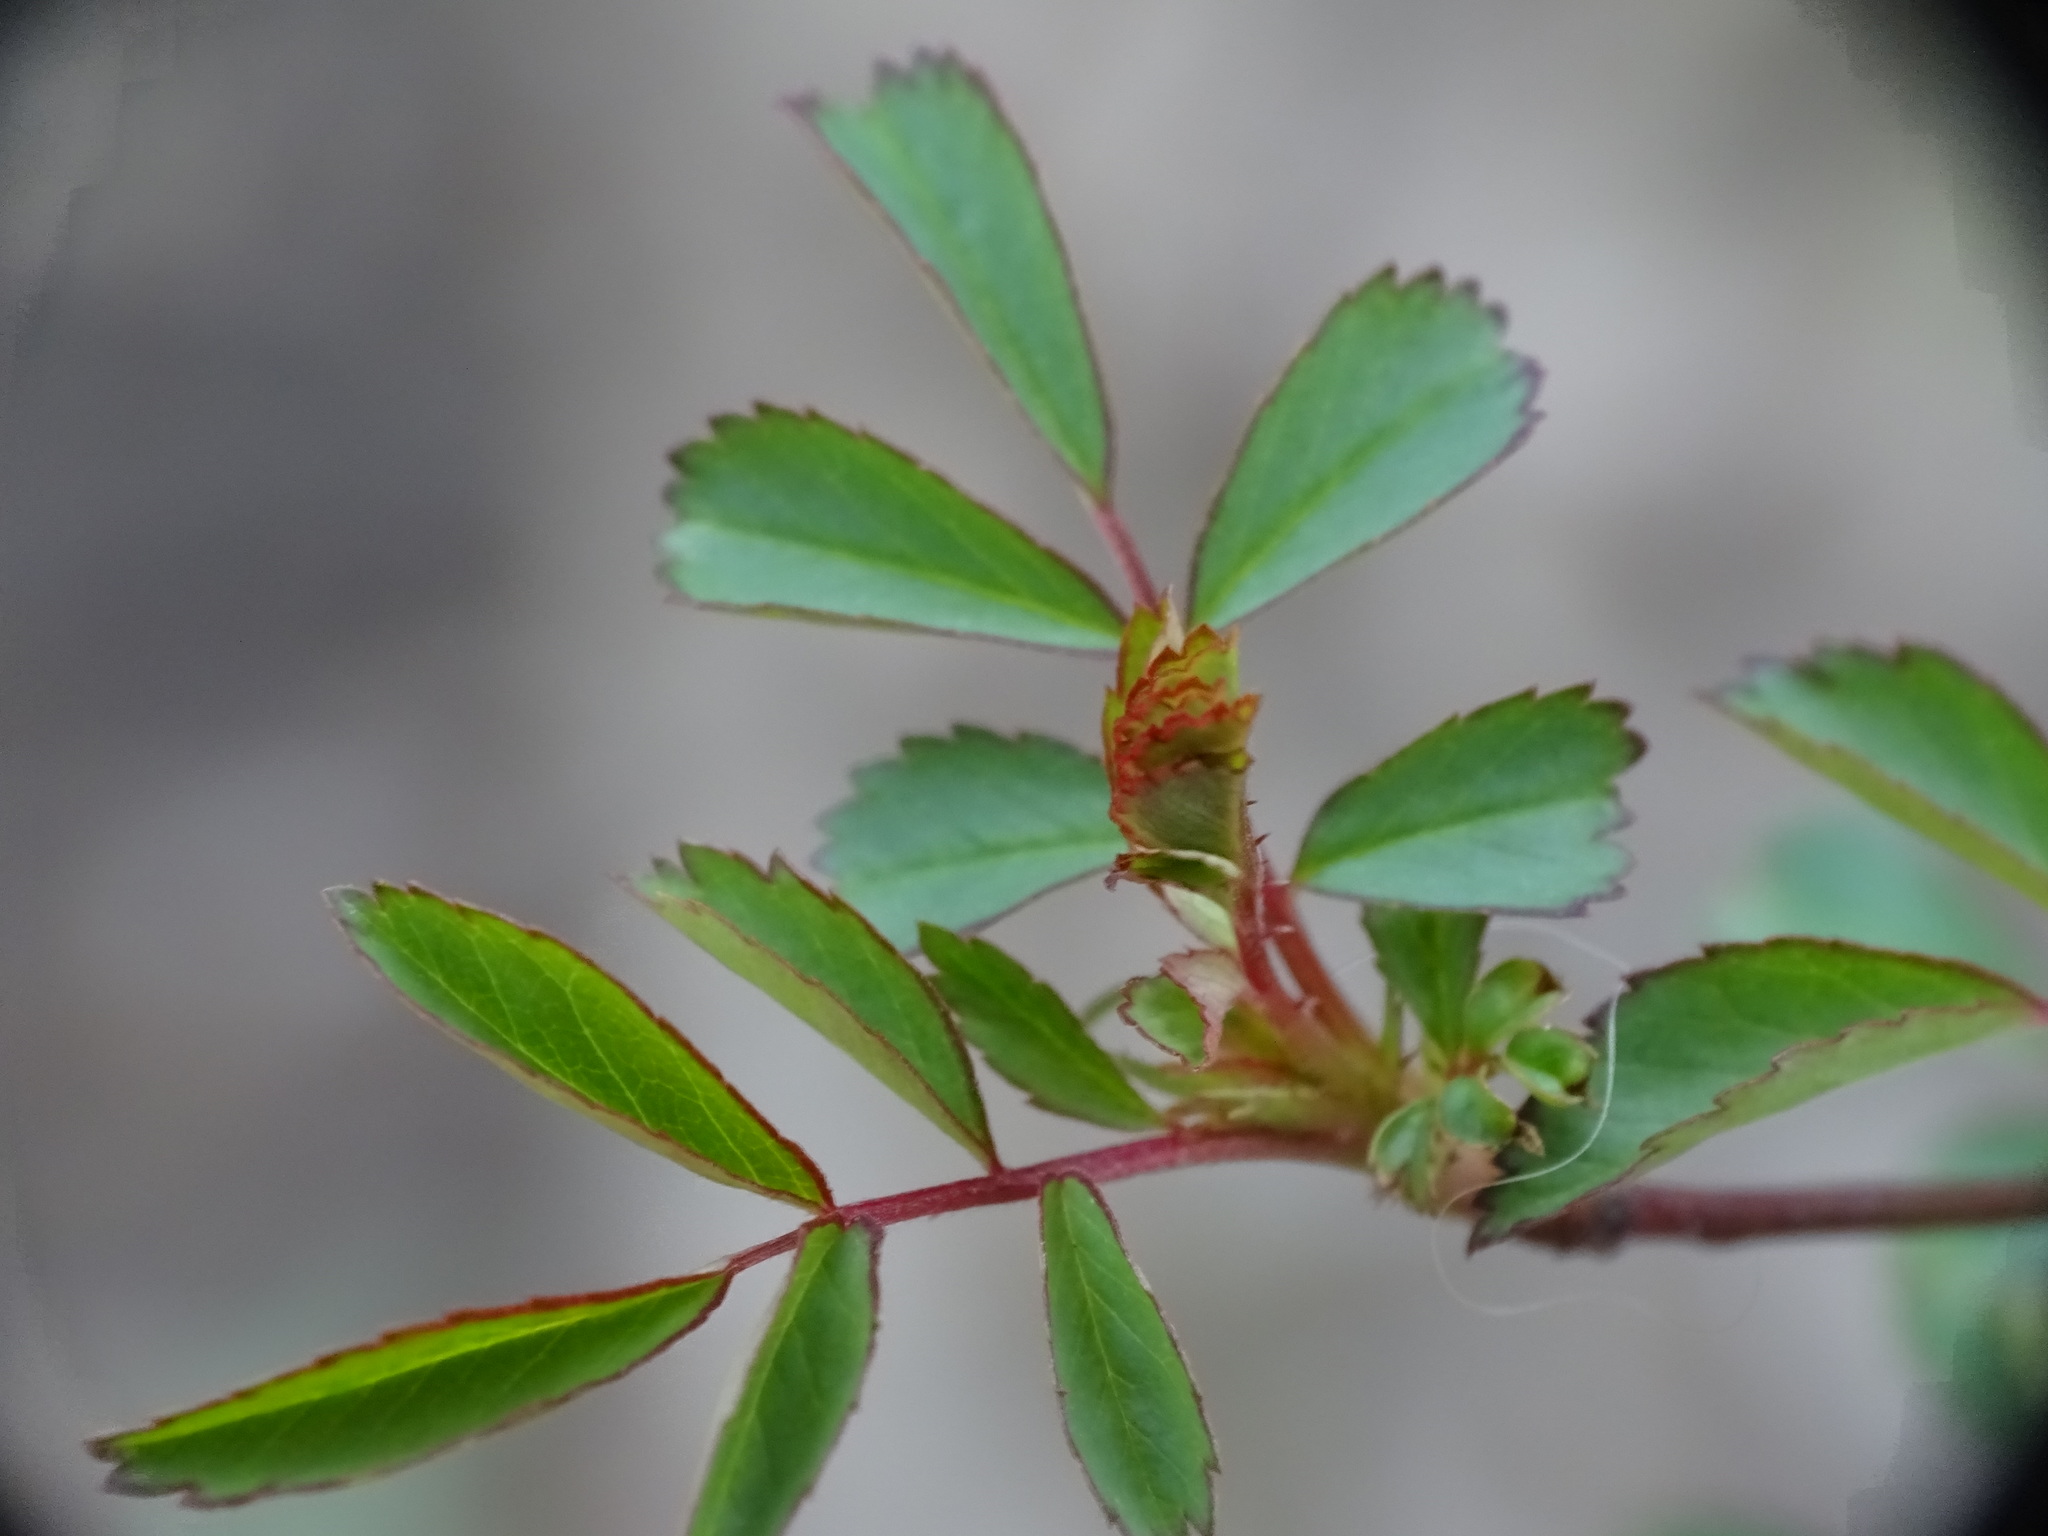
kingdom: Plantae
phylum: Tracheophyta
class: Magnoliopsida
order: Rosales
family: Rosaceae
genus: Rosa
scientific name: Rosa multiflora
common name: Multiflora rose
